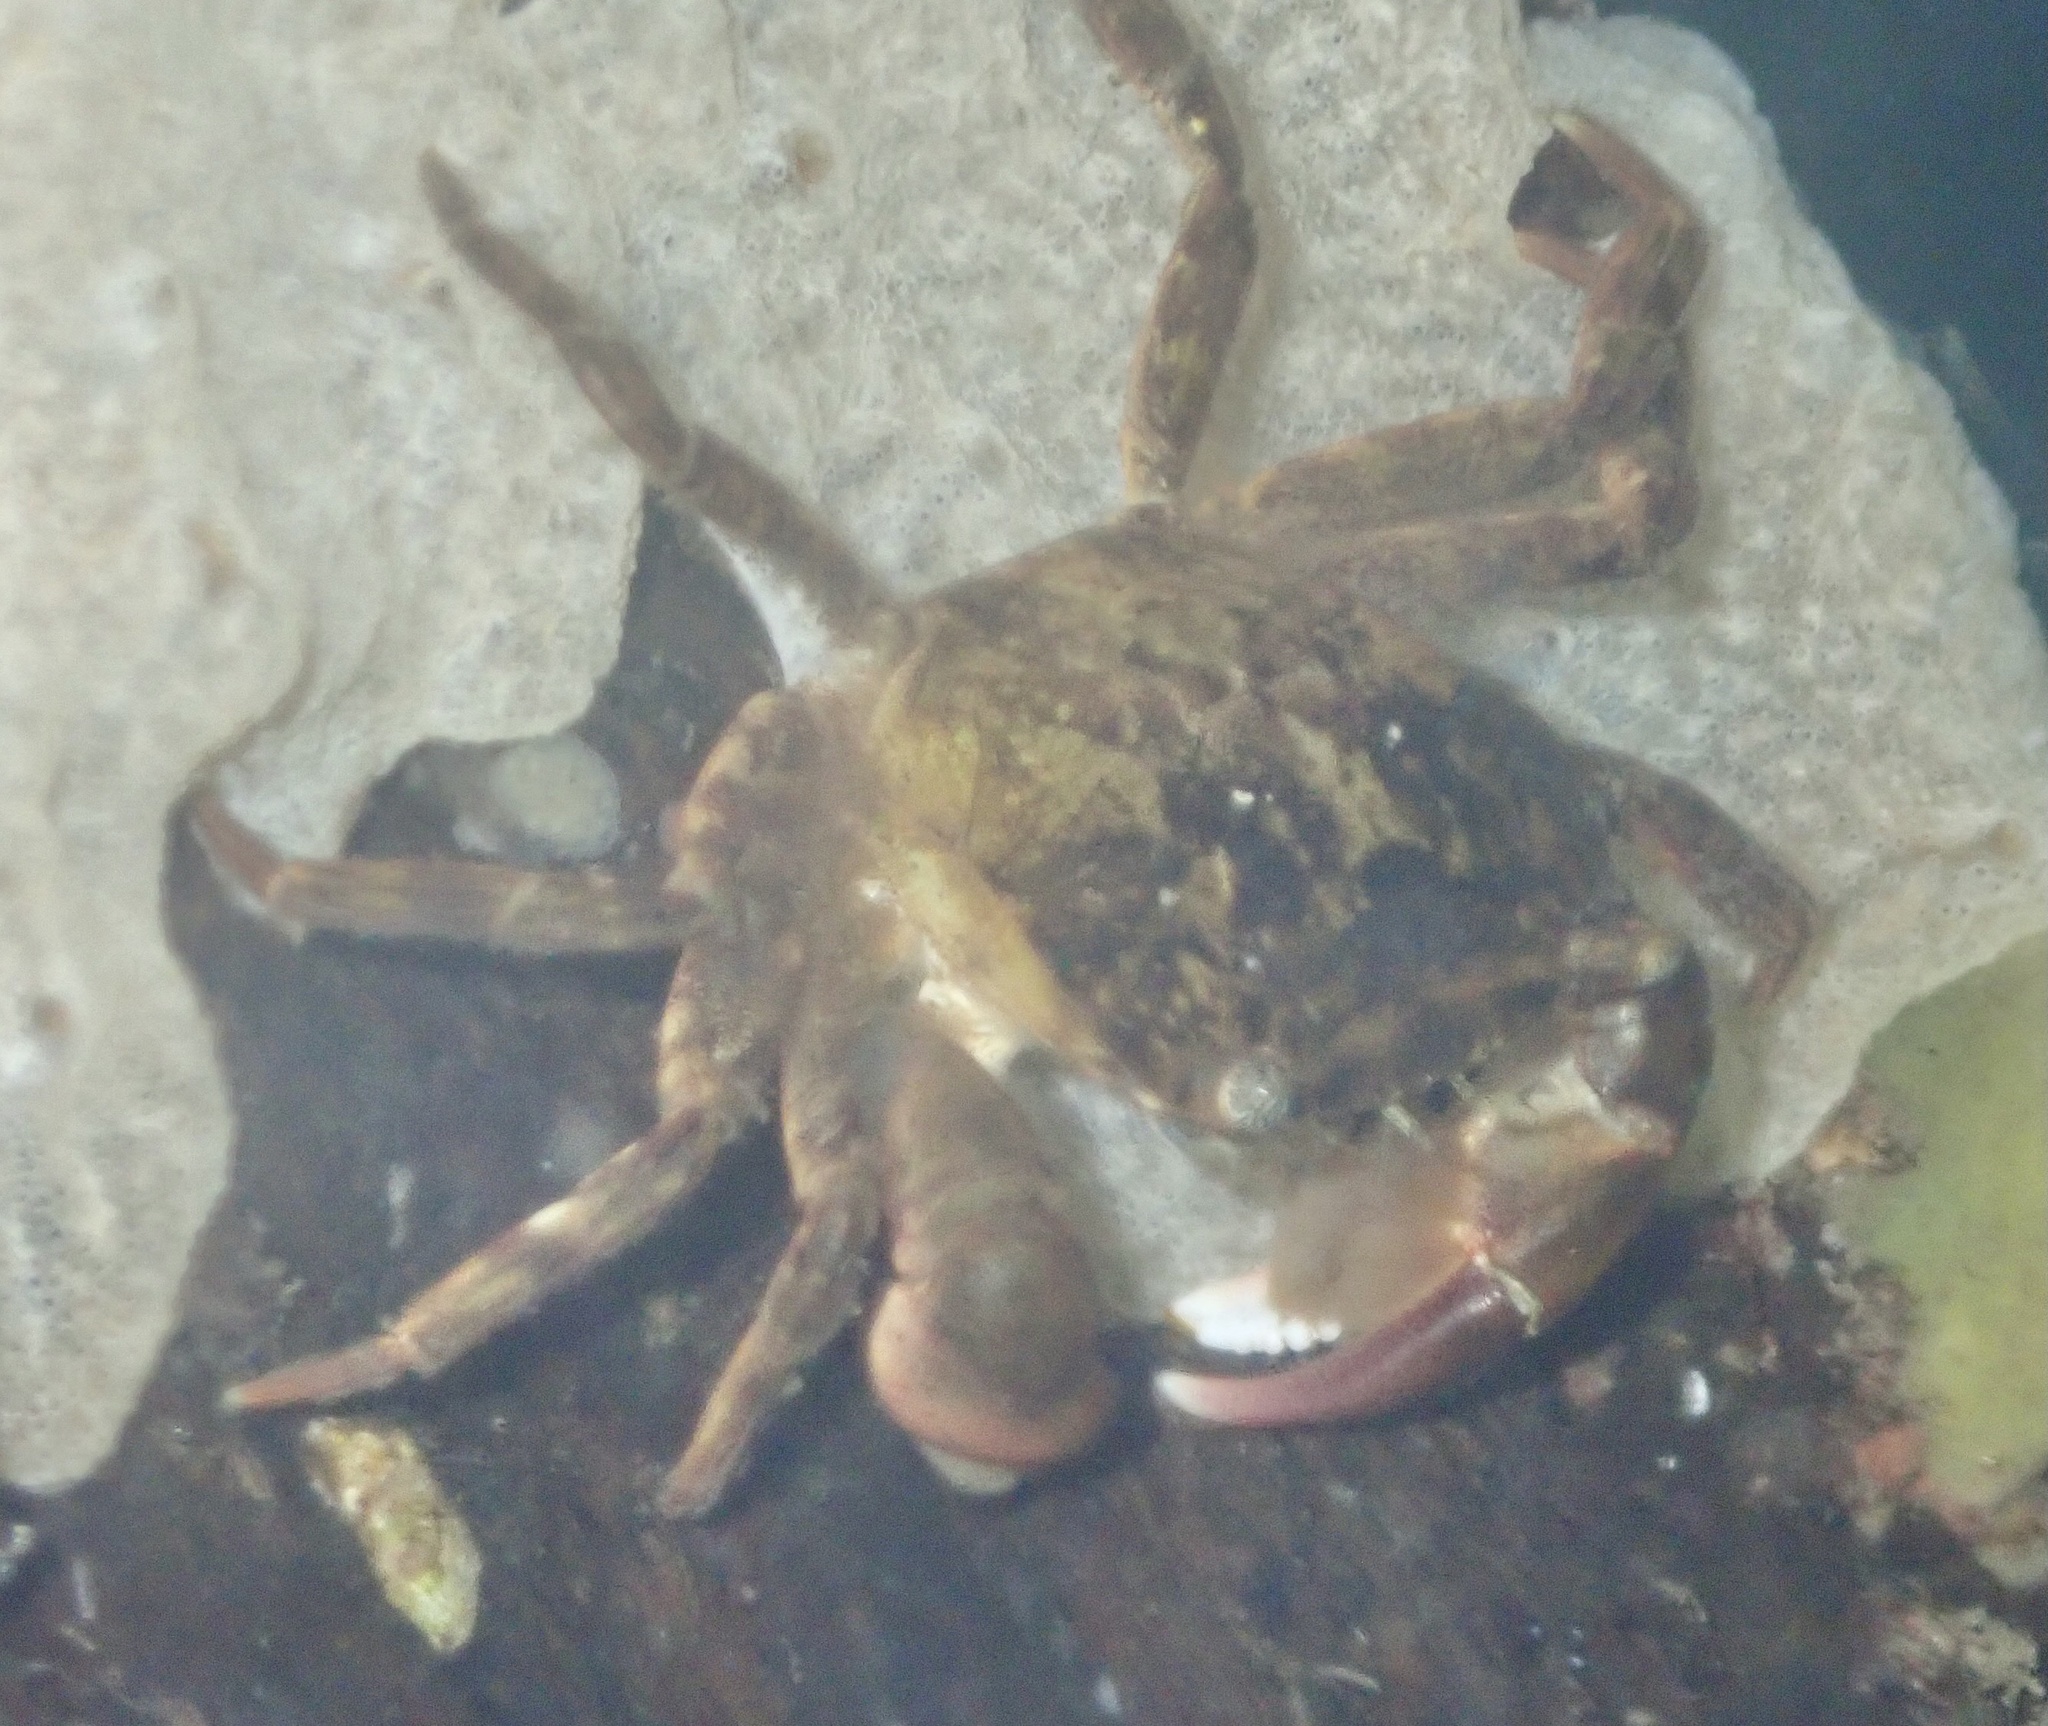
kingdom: Animalia
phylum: Arthropoda
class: Malacostraca
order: Decapoda
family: Varunidae
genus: Hemigrapsus
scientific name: Hemigrapsus takanoi
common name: Asian brush crab
